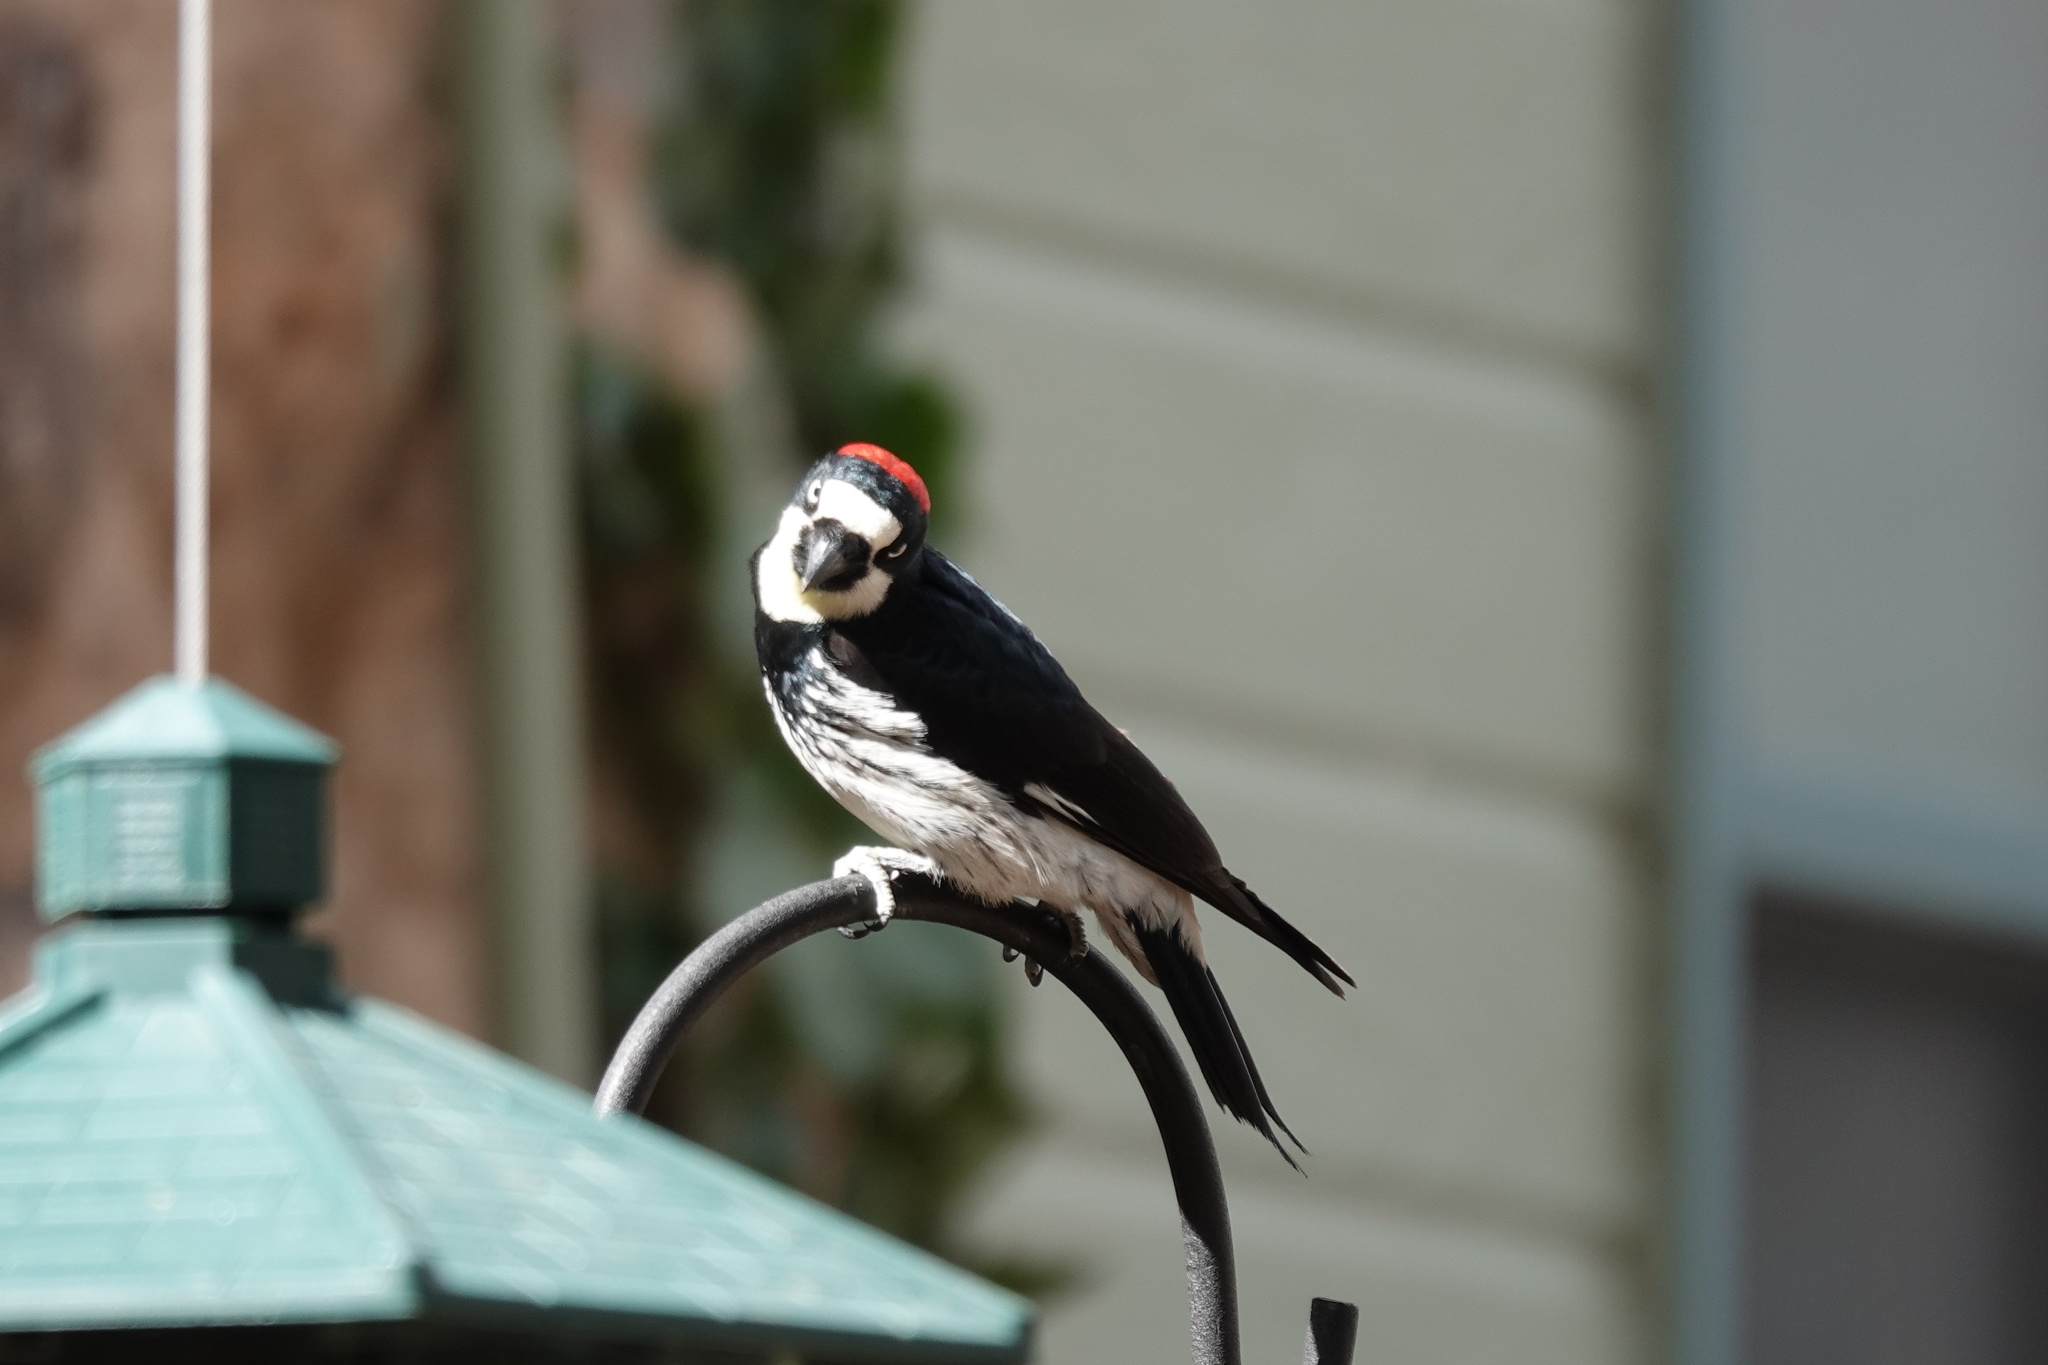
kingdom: Animalia
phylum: Chordata
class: Aves
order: Piciformes
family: Picidae
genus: Melanerpes
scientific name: Melanerpes formicivorus
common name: Acorn woodpecker
